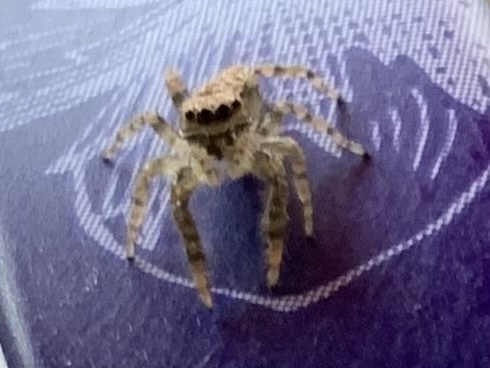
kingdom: Animalia
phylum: Arthropoda
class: Arachnida
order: Araneae
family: Salticidae
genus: Marpissa
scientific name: Marpissa muscosa
